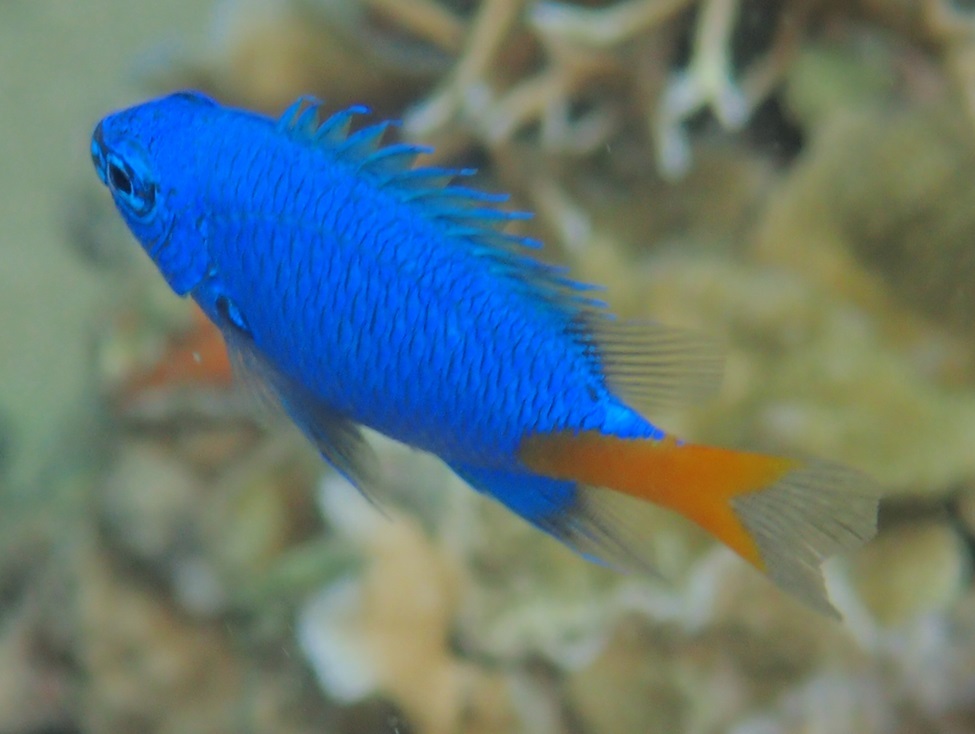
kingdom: Animalia
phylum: Chordata
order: Perciformes
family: Pomacentridae
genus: Chrysiptera
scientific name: Chrysiptera parasema
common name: Goldtail demoiselle
